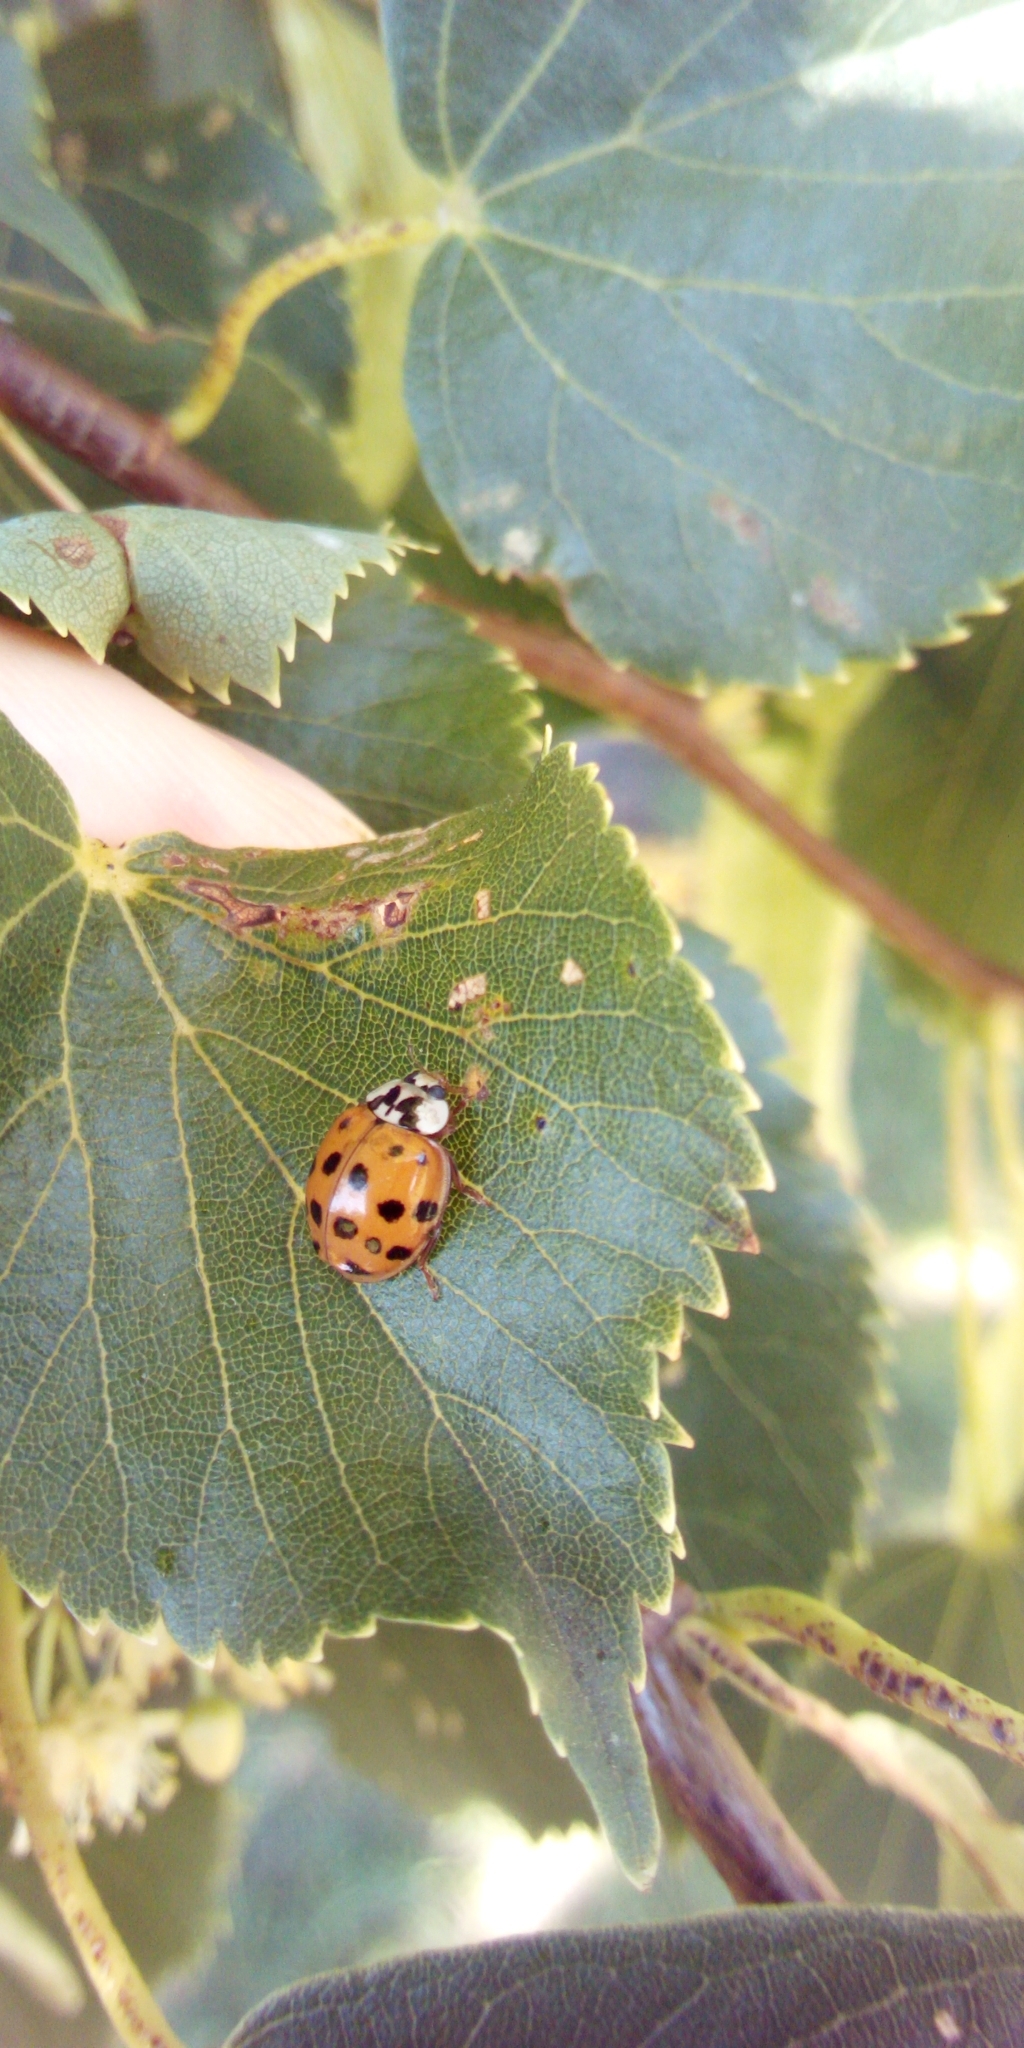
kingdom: Animalia
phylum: Arthropoda
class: Insecta
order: Coleoptera
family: Coccinellidae
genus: Harmonia
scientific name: Harmonia axyridis
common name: Harlequin ladybird
